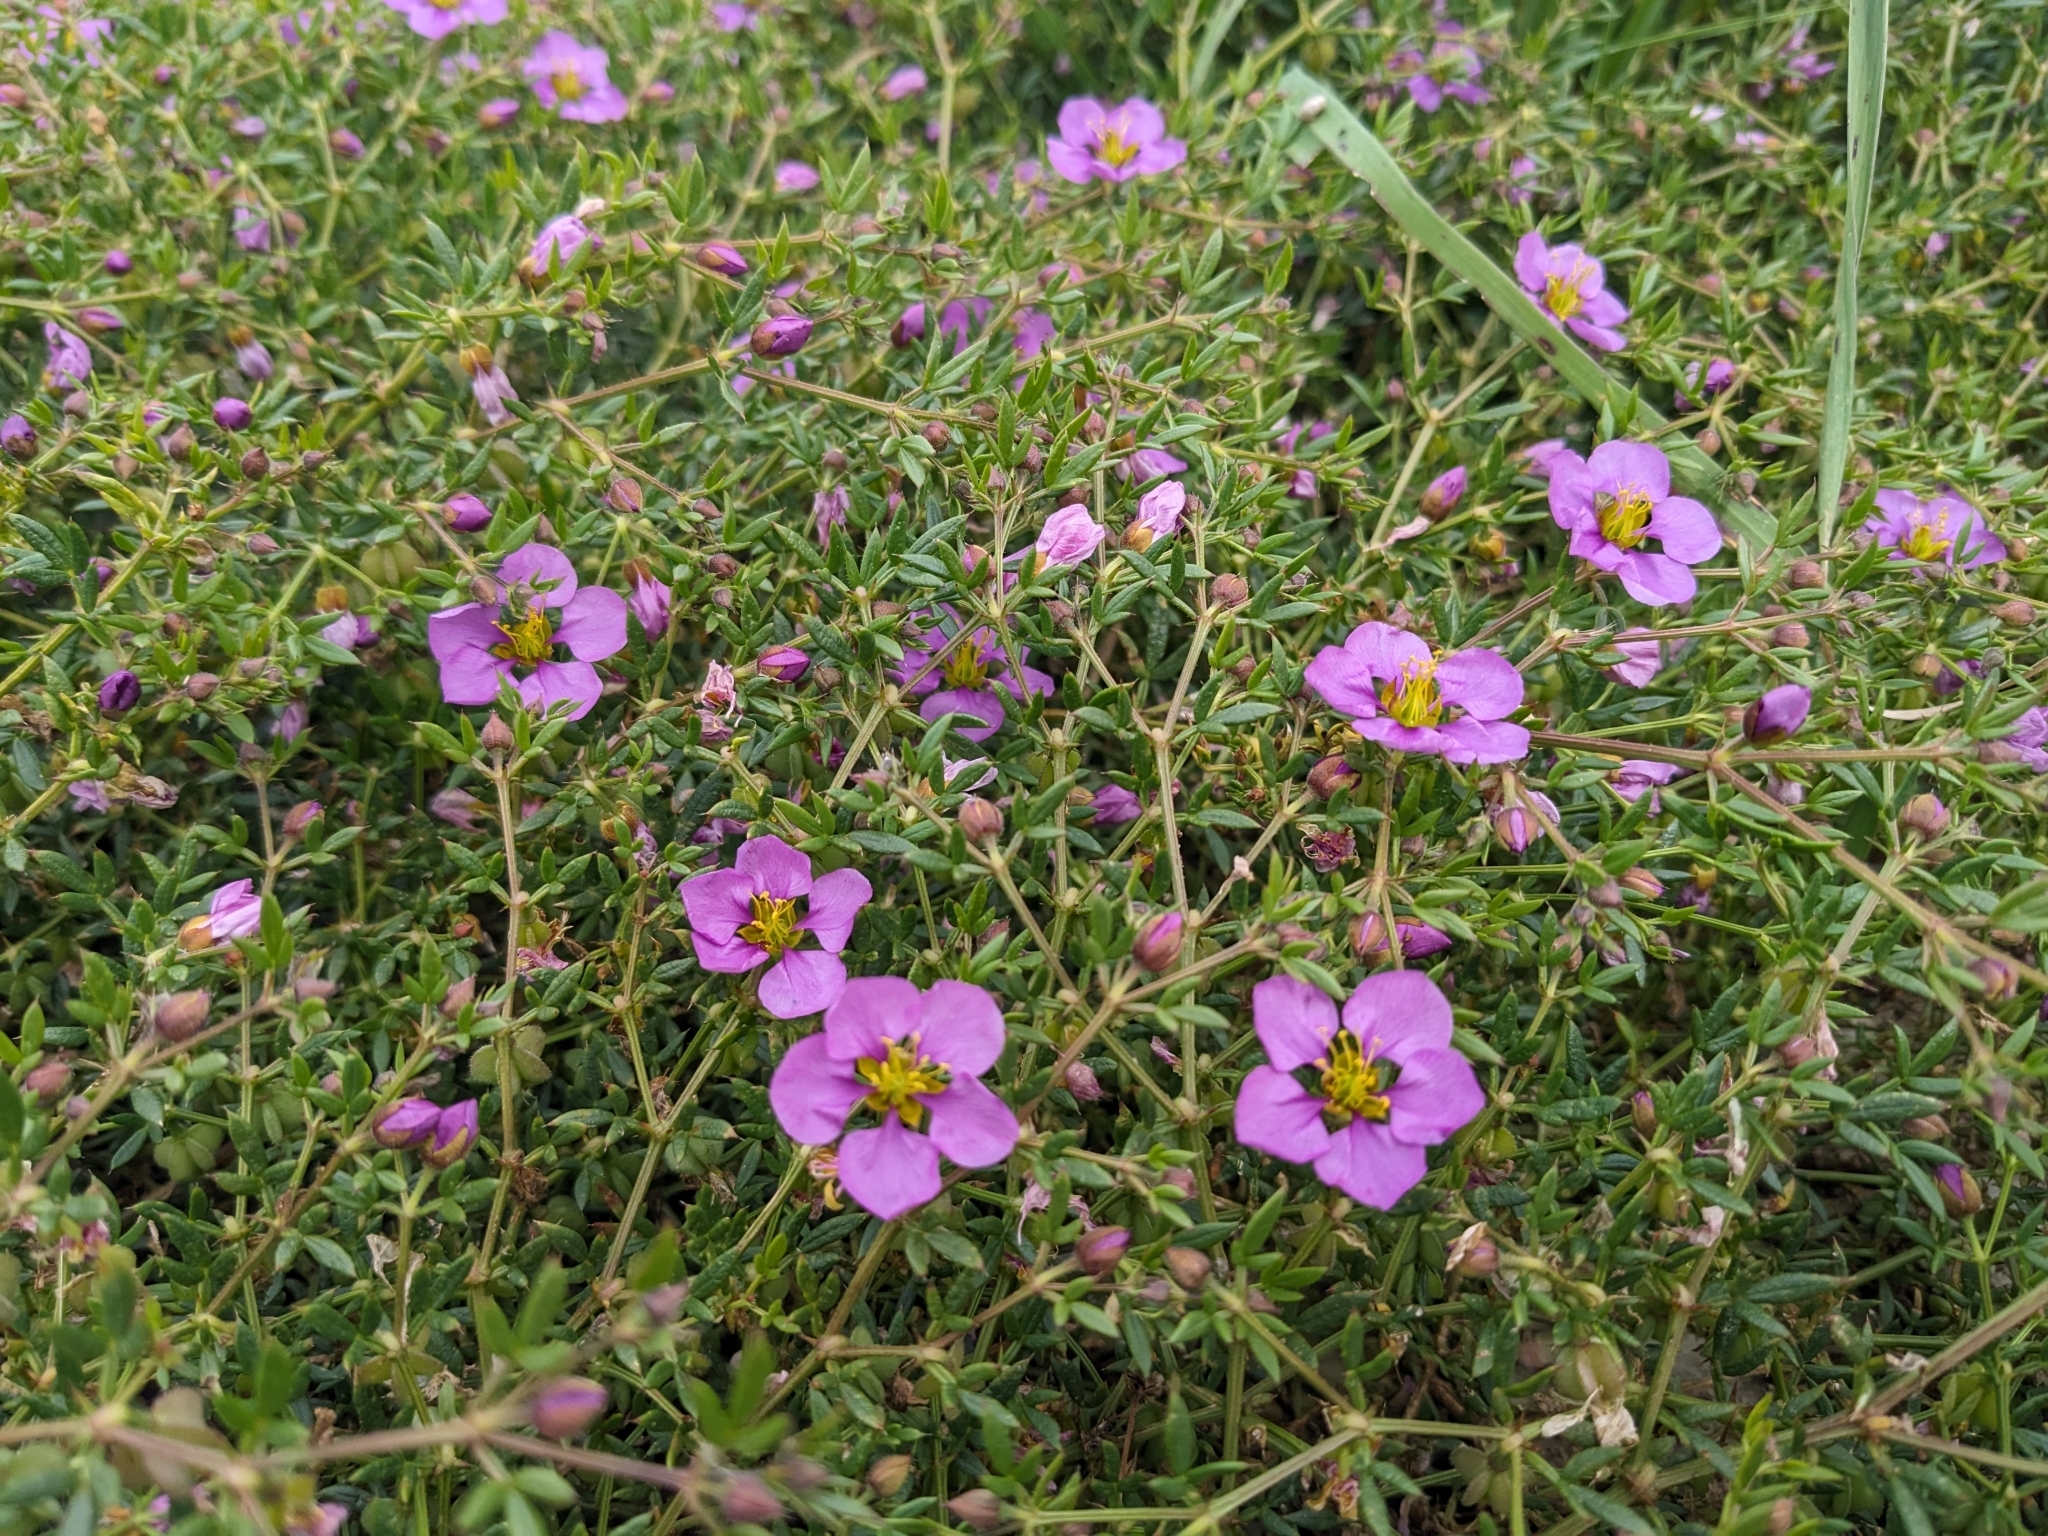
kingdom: Plantae
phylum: Tracheophyta
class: Magnoliopsida
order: Zygophyllales
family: Zygophyllaceae
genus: Fagonia
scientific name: Fagonia cretica
